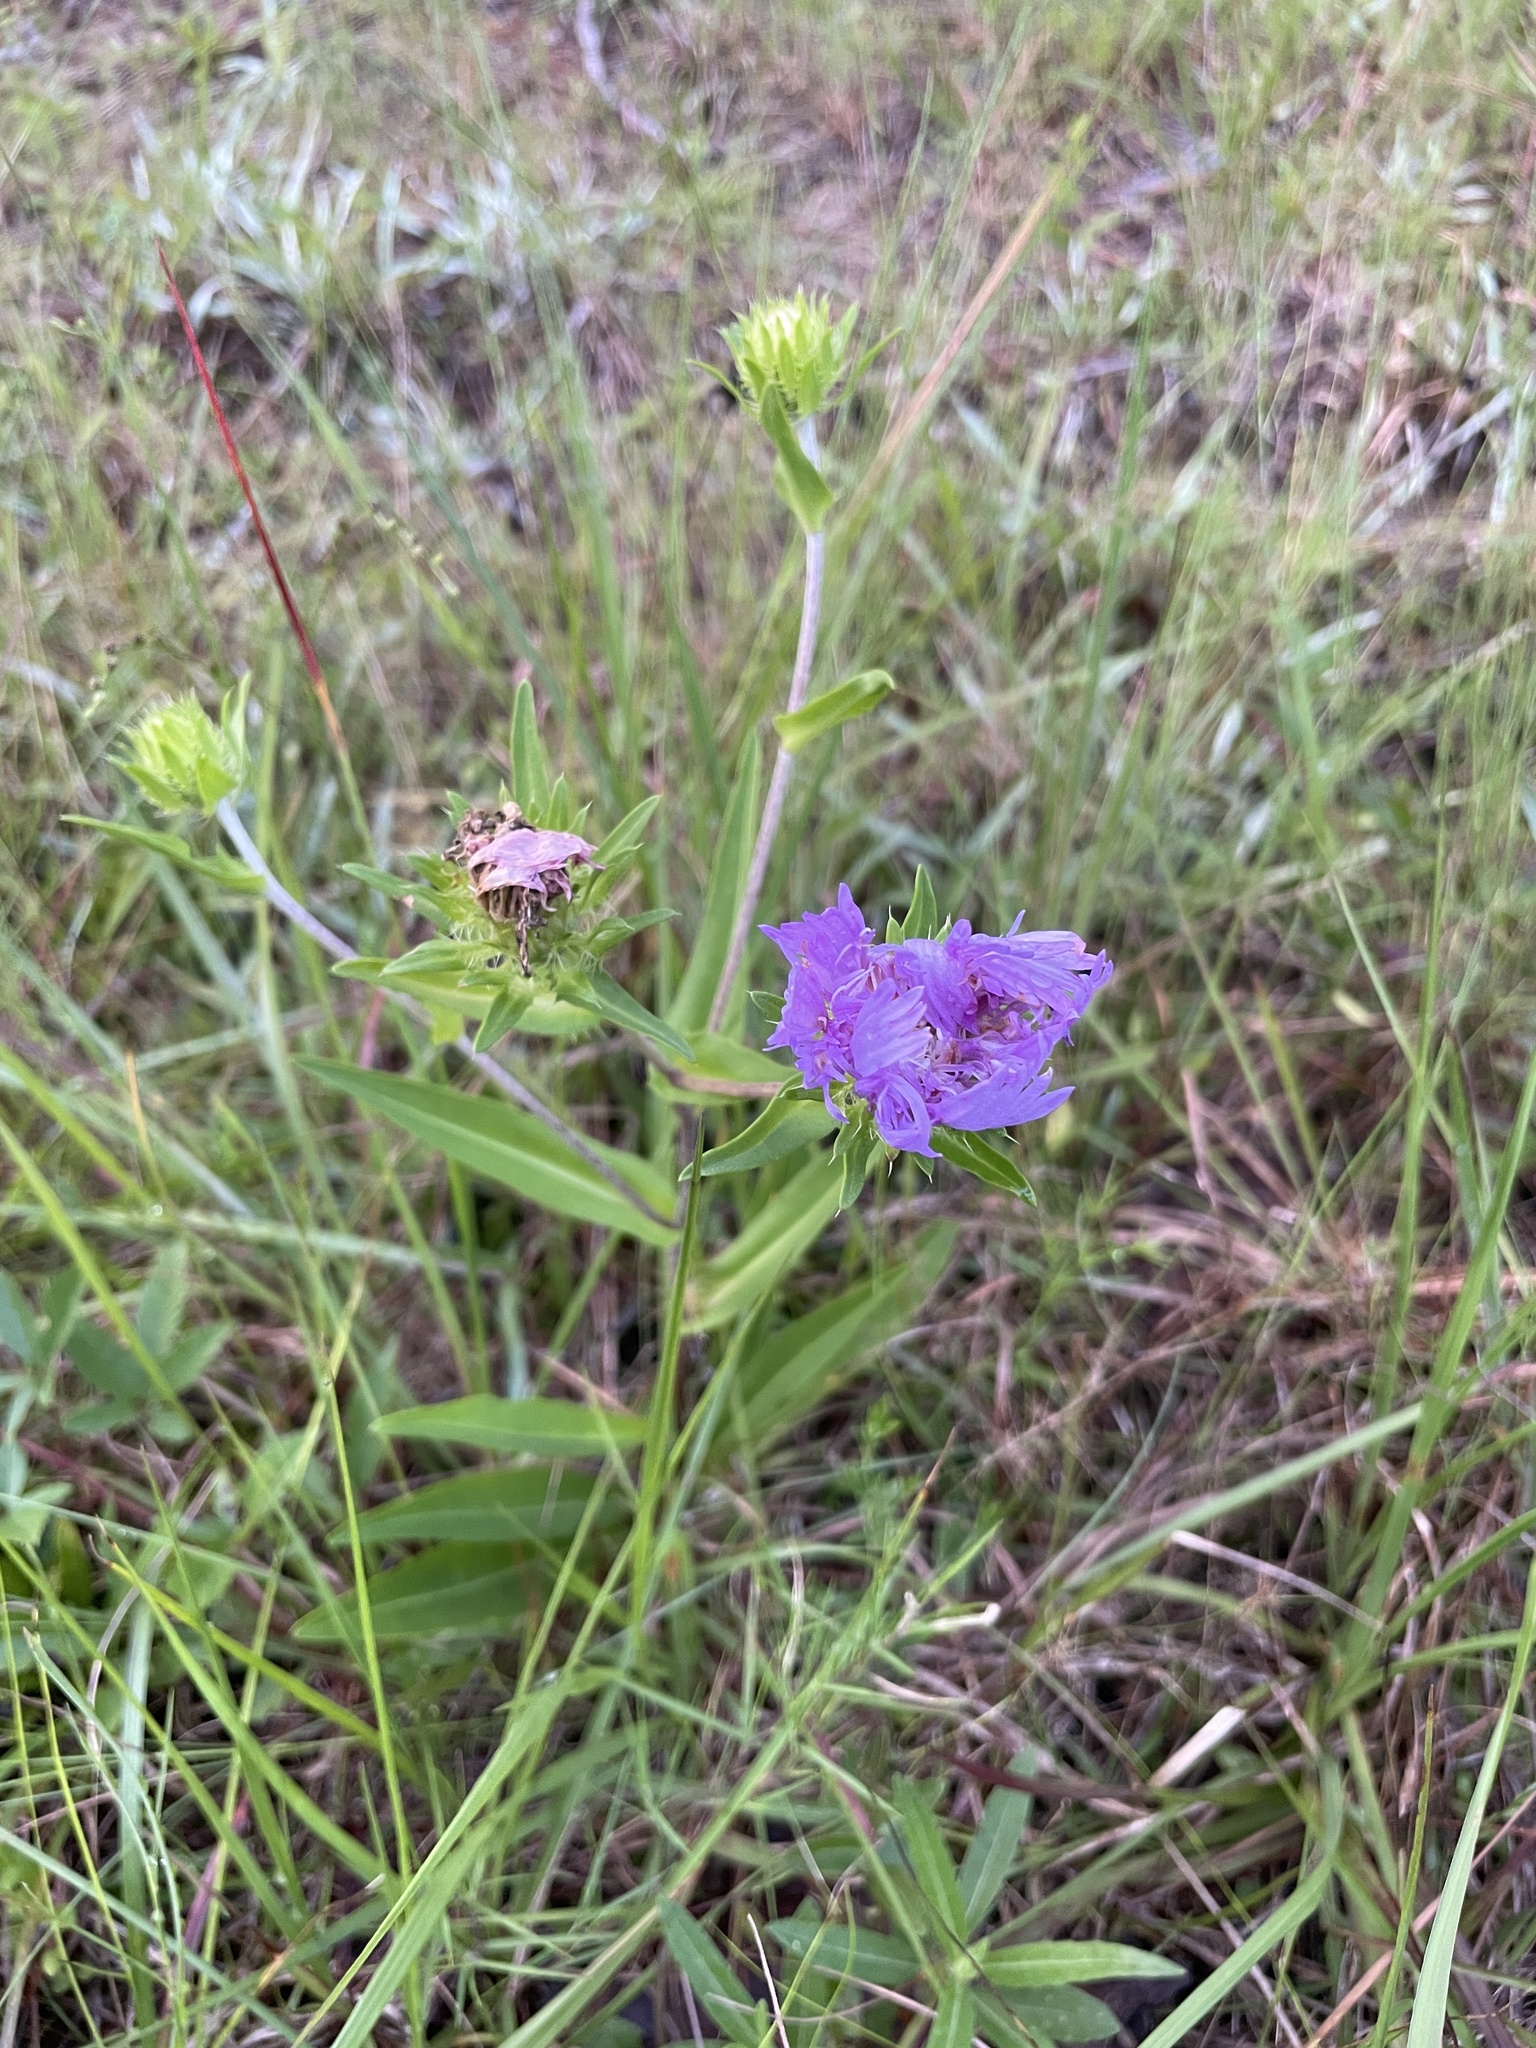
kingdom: Plantae
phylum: Tracheophyta
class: Magnoliopsida
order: Asterales
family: Asteraceae
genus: Stokesia
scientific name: Stokesia laevis
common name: Stokes'-aster
